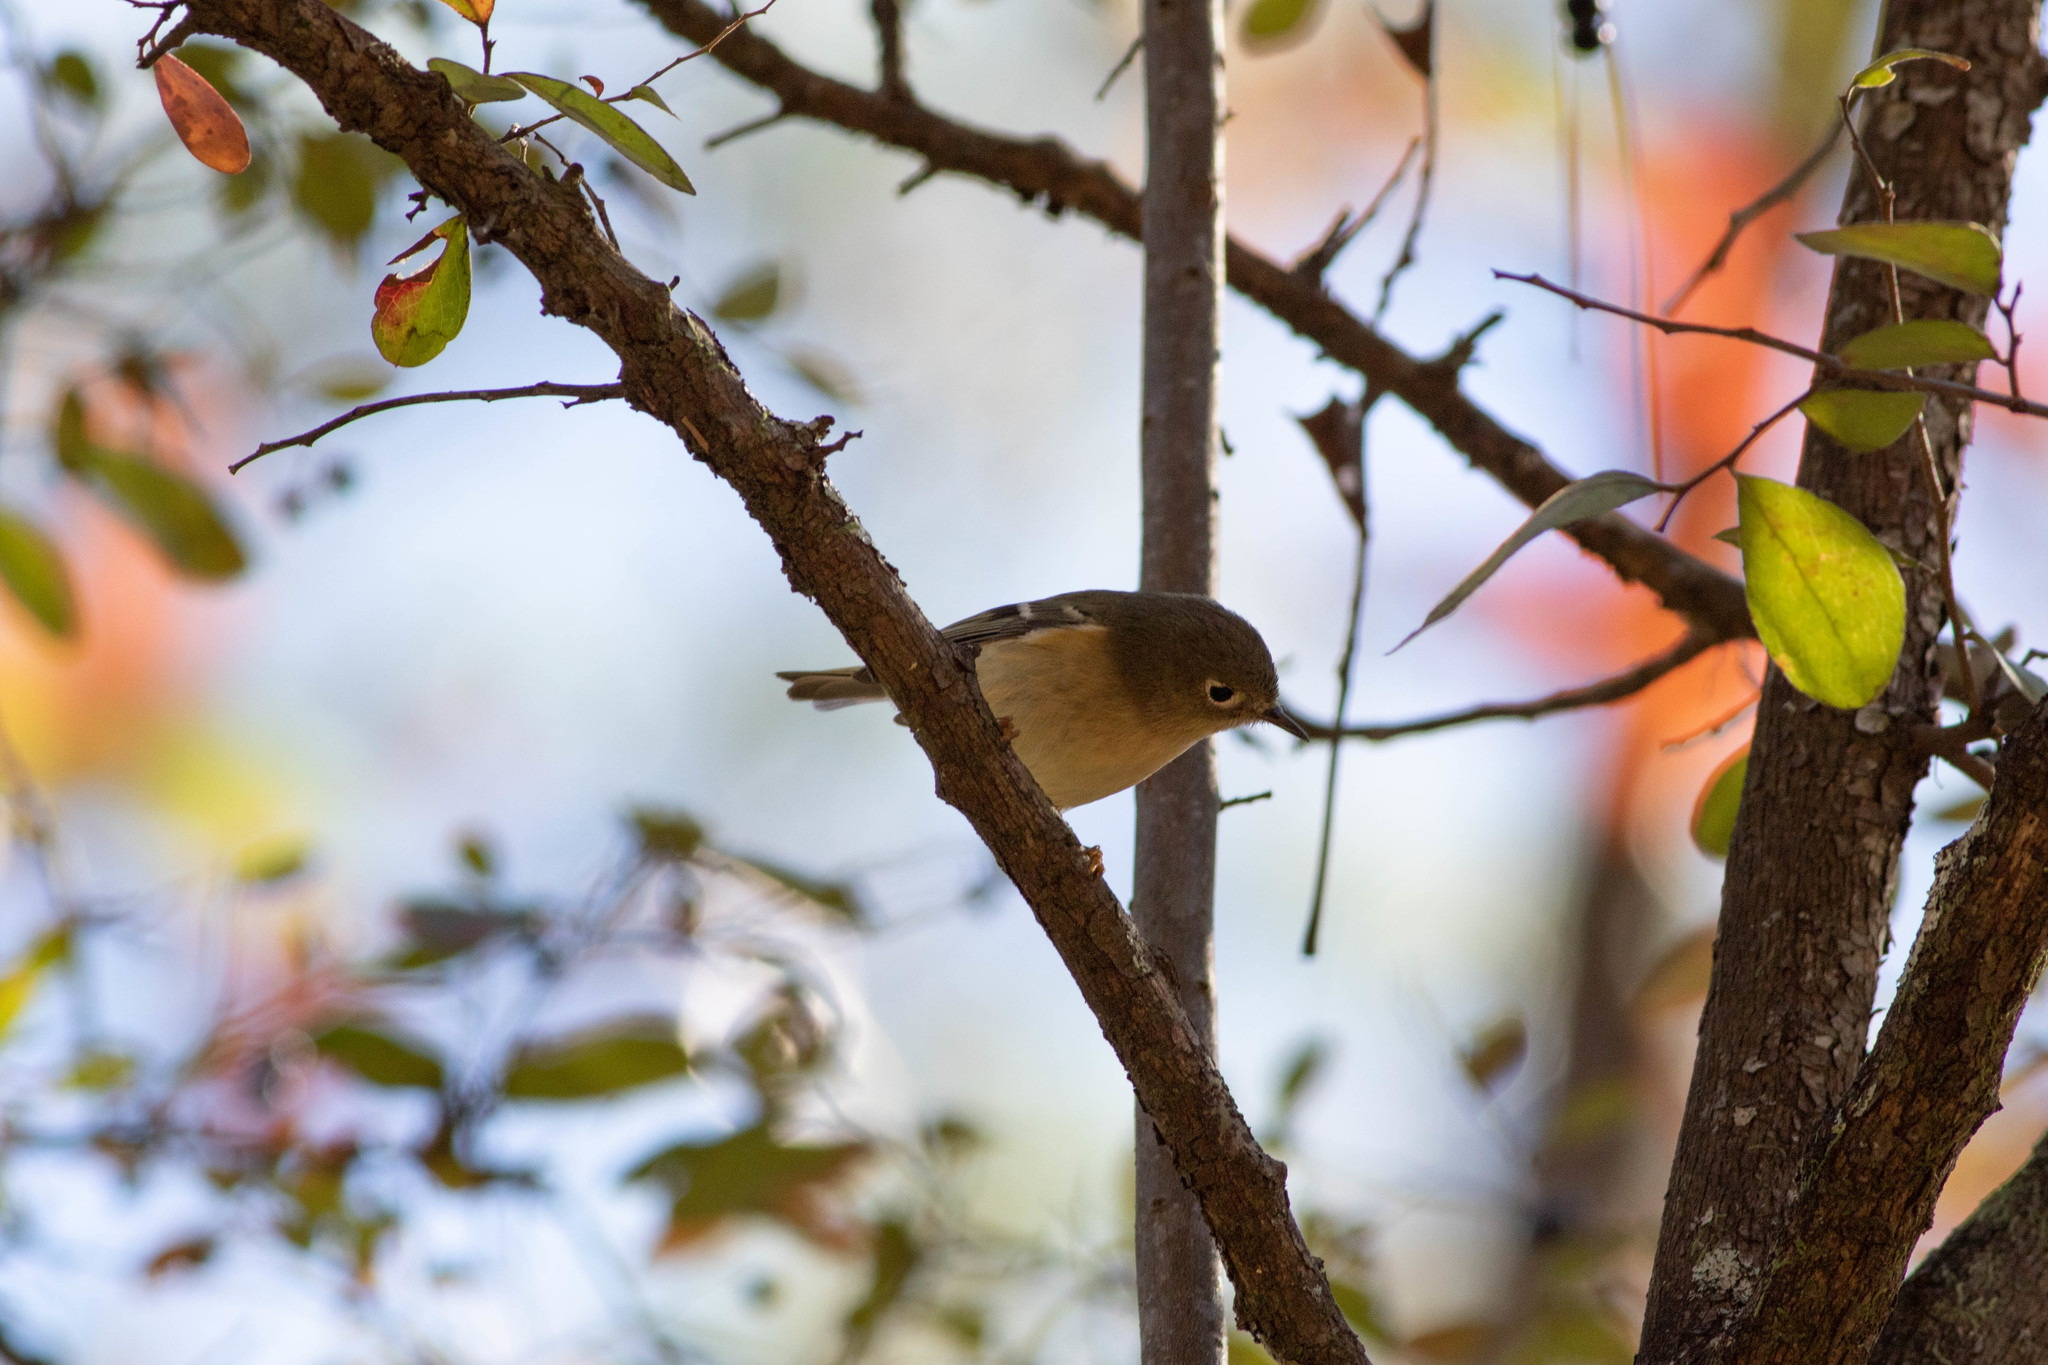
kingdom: Animalia
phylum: Chordata
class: Aves
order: Passeriformes
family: Regulidae
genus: Regulus
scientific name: Regulus calendula
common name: Ruby-crowned kinglet
